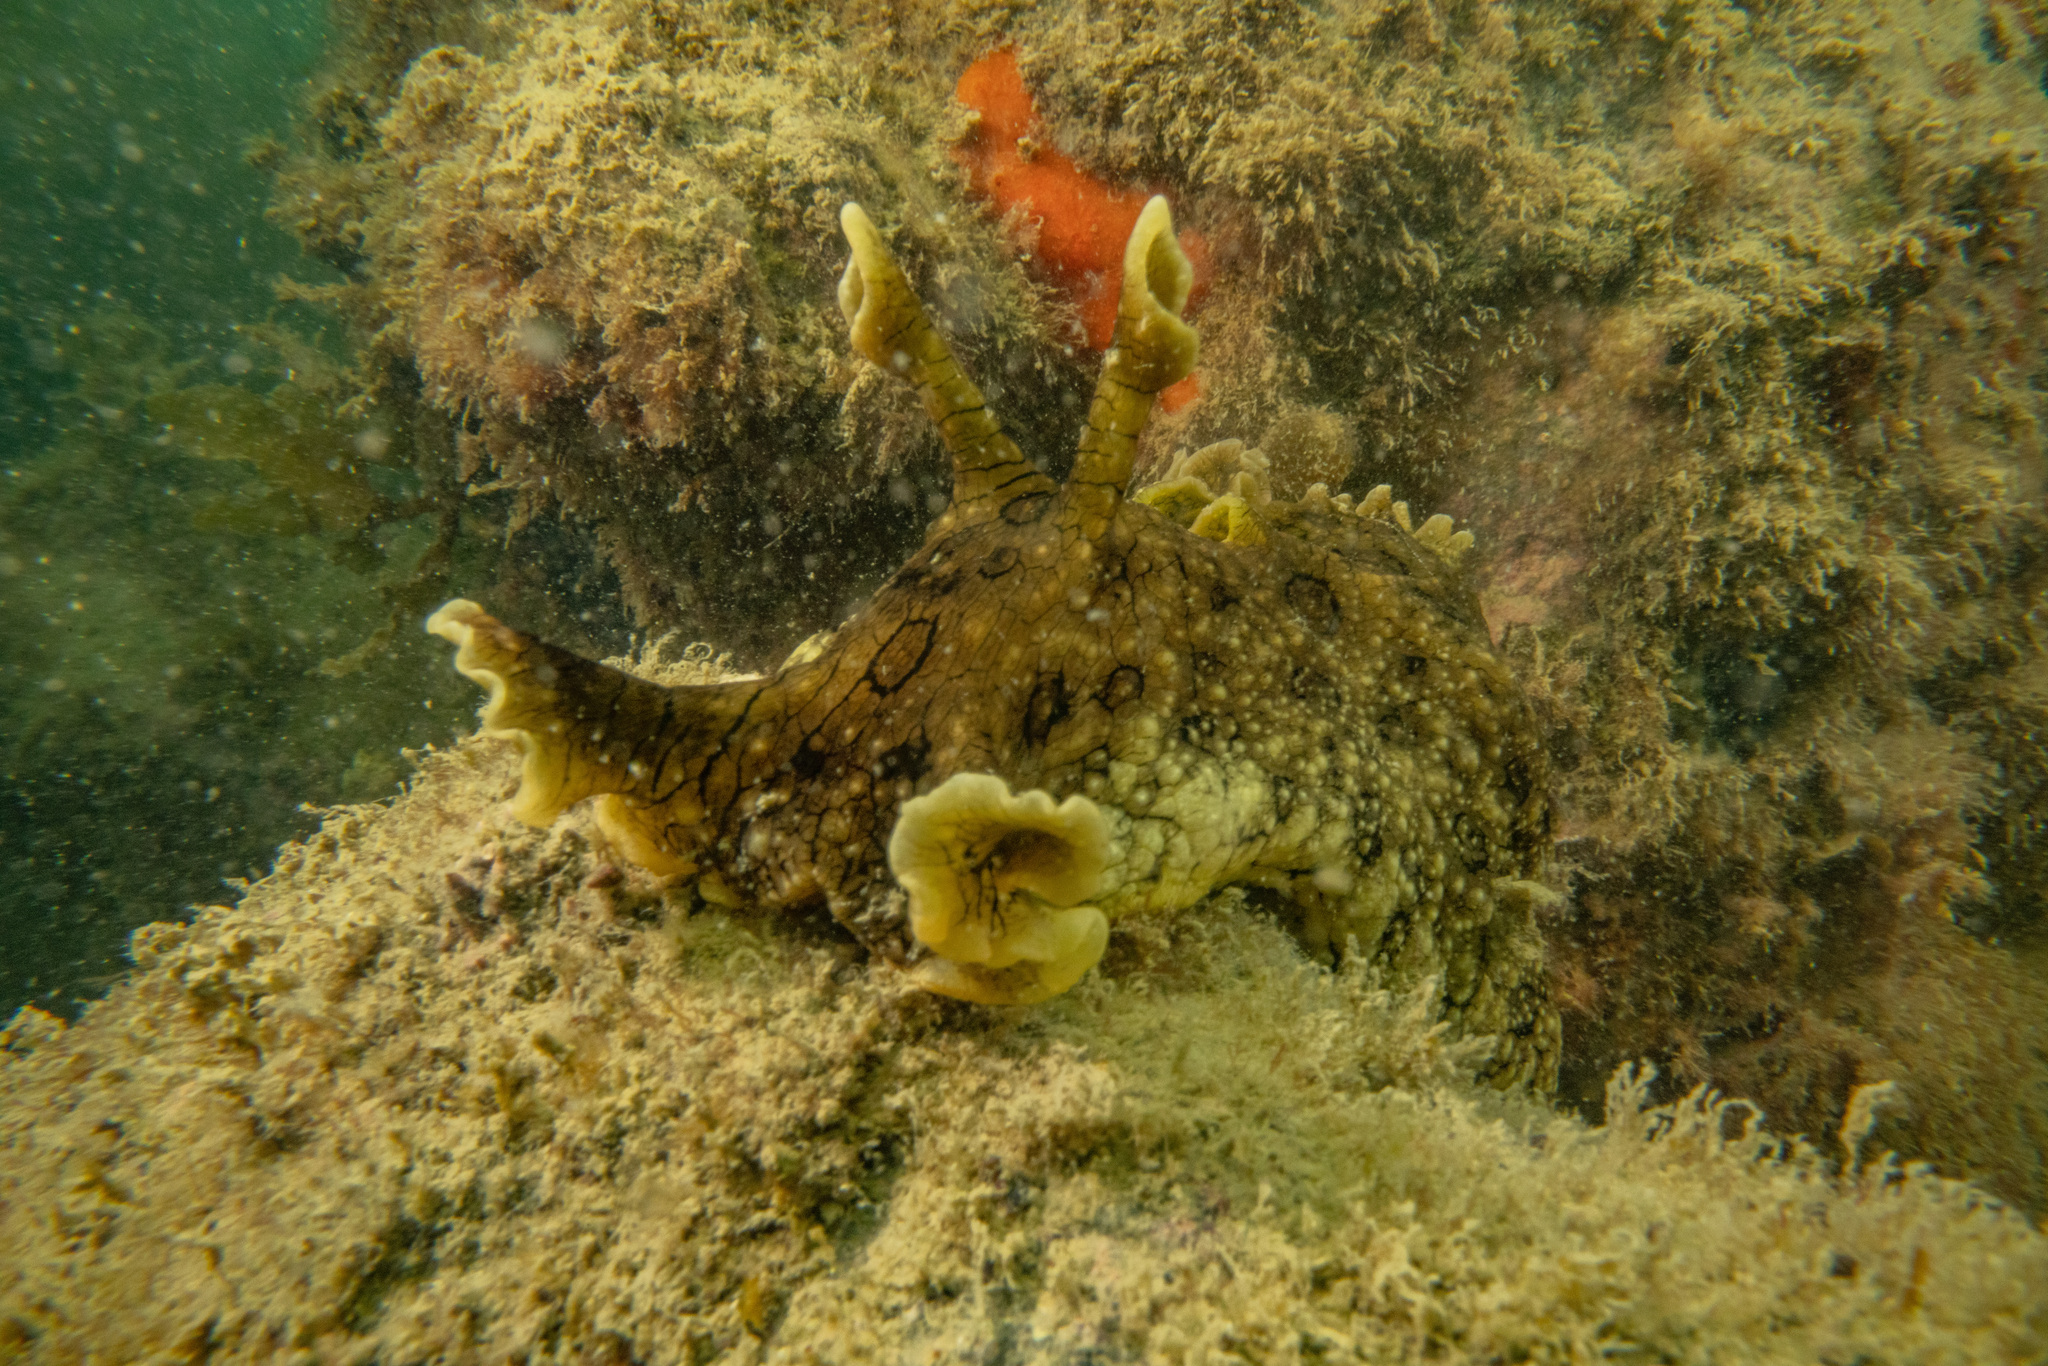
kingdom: Animalia
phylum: Mollusca
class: Gastropoda
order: Aplysiida
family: Aplysiidae
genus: Aplysia
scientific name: Aplysia argus
